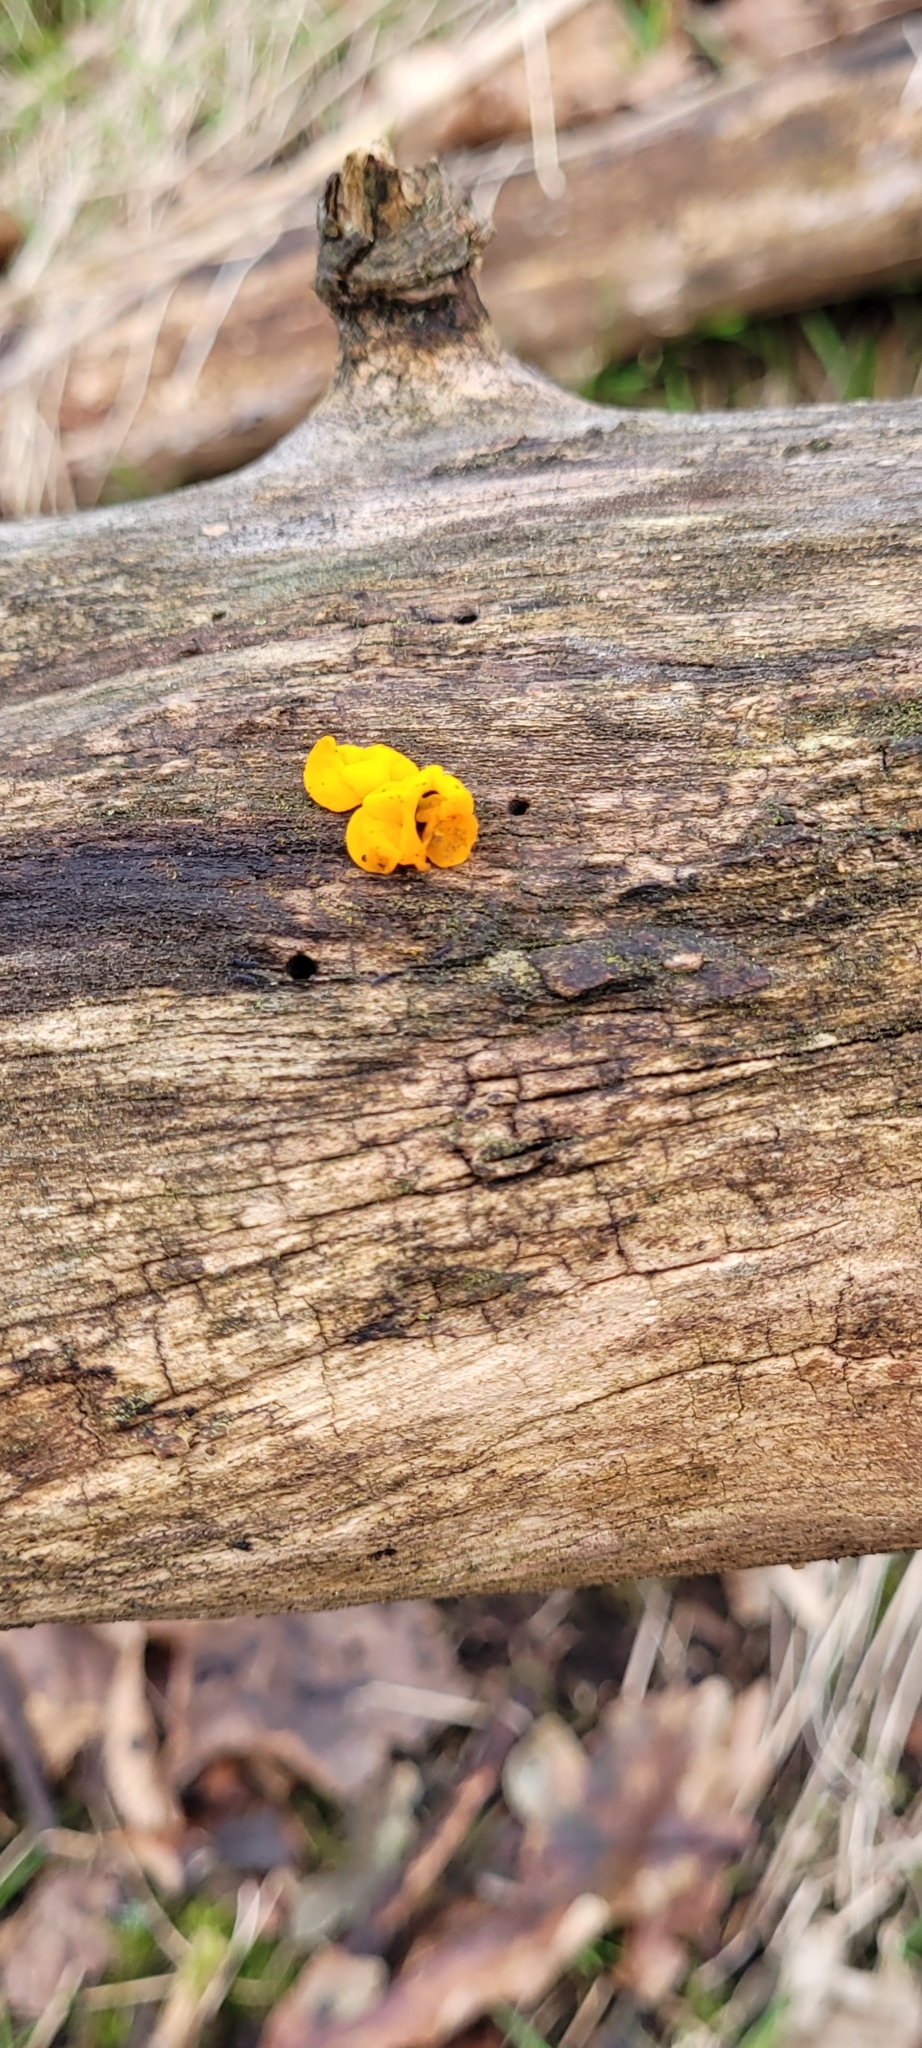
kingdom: Fungi
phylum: Basidiomycota
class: Tremellomycetes
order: Tremellales
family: Tremellaceae
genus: Tremella
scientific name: Tremella mesenterica
